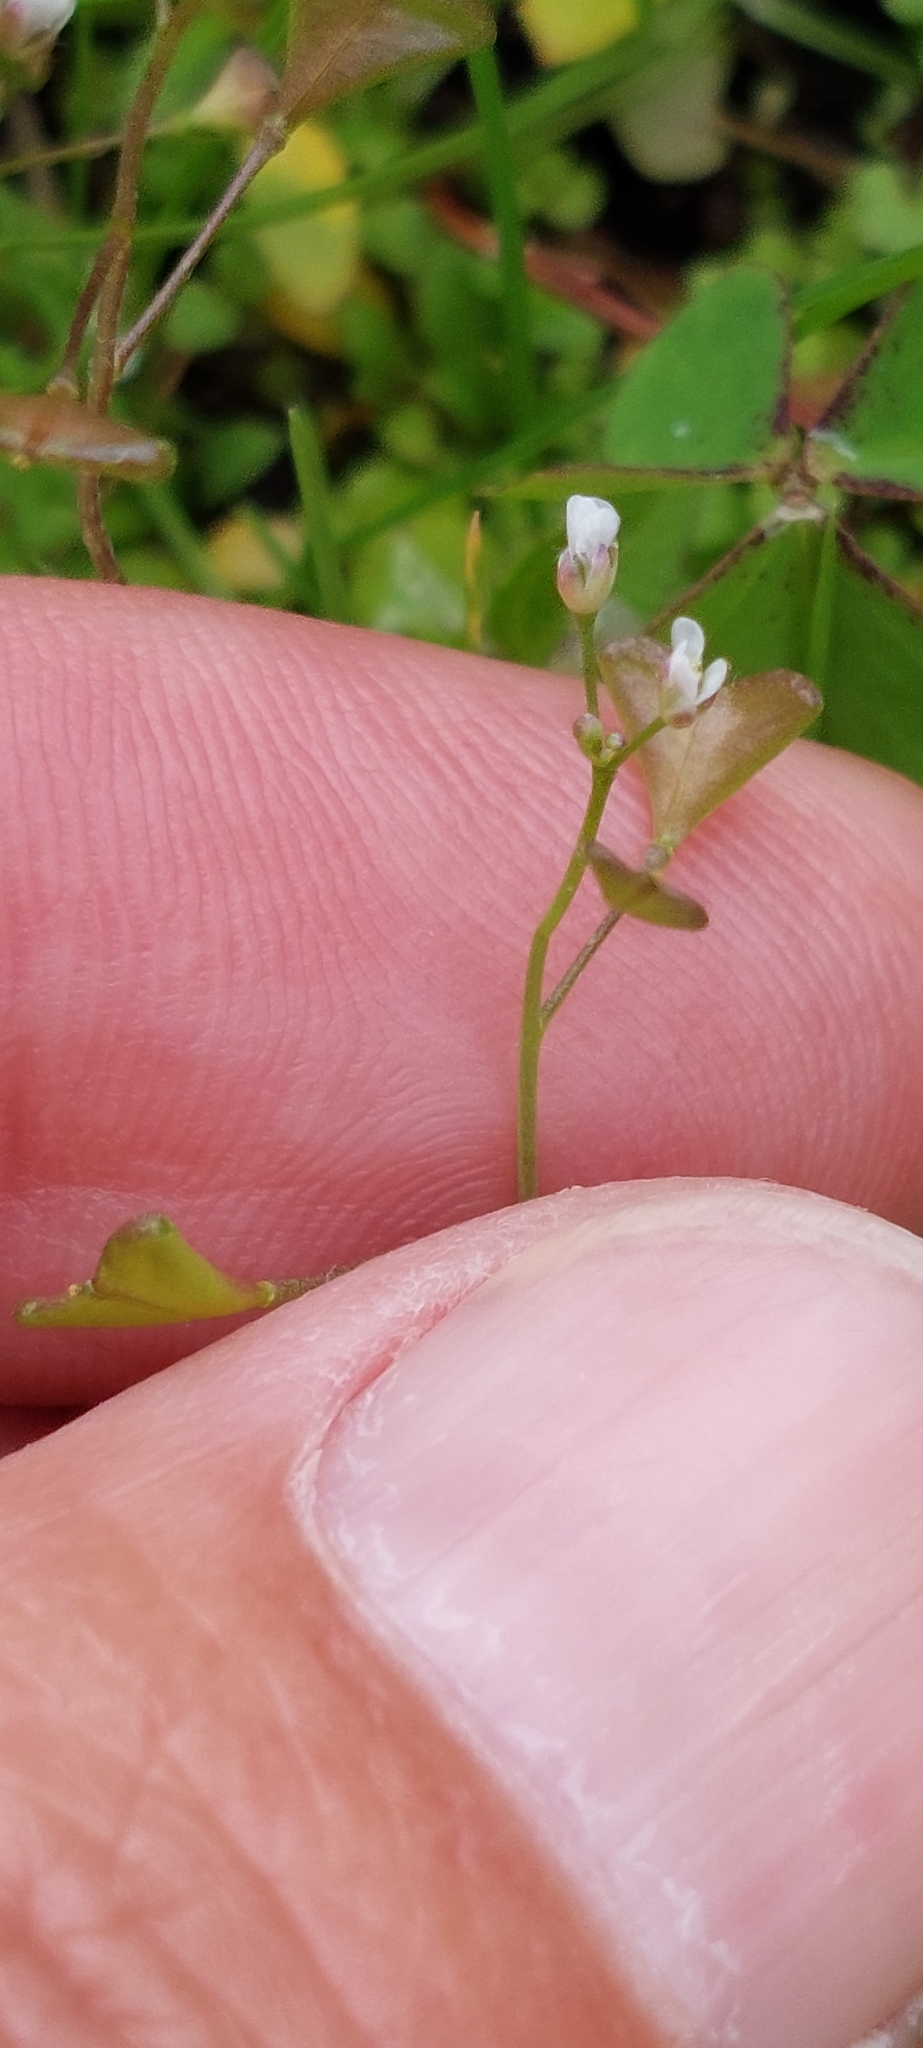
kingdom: Plantae
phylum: Tracheophyta
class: Magnoliopsida
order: Brassicales
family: Brassicaceae
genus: Capsella
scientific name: Capsella bursa-pastoris
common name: Shepherd's purse
